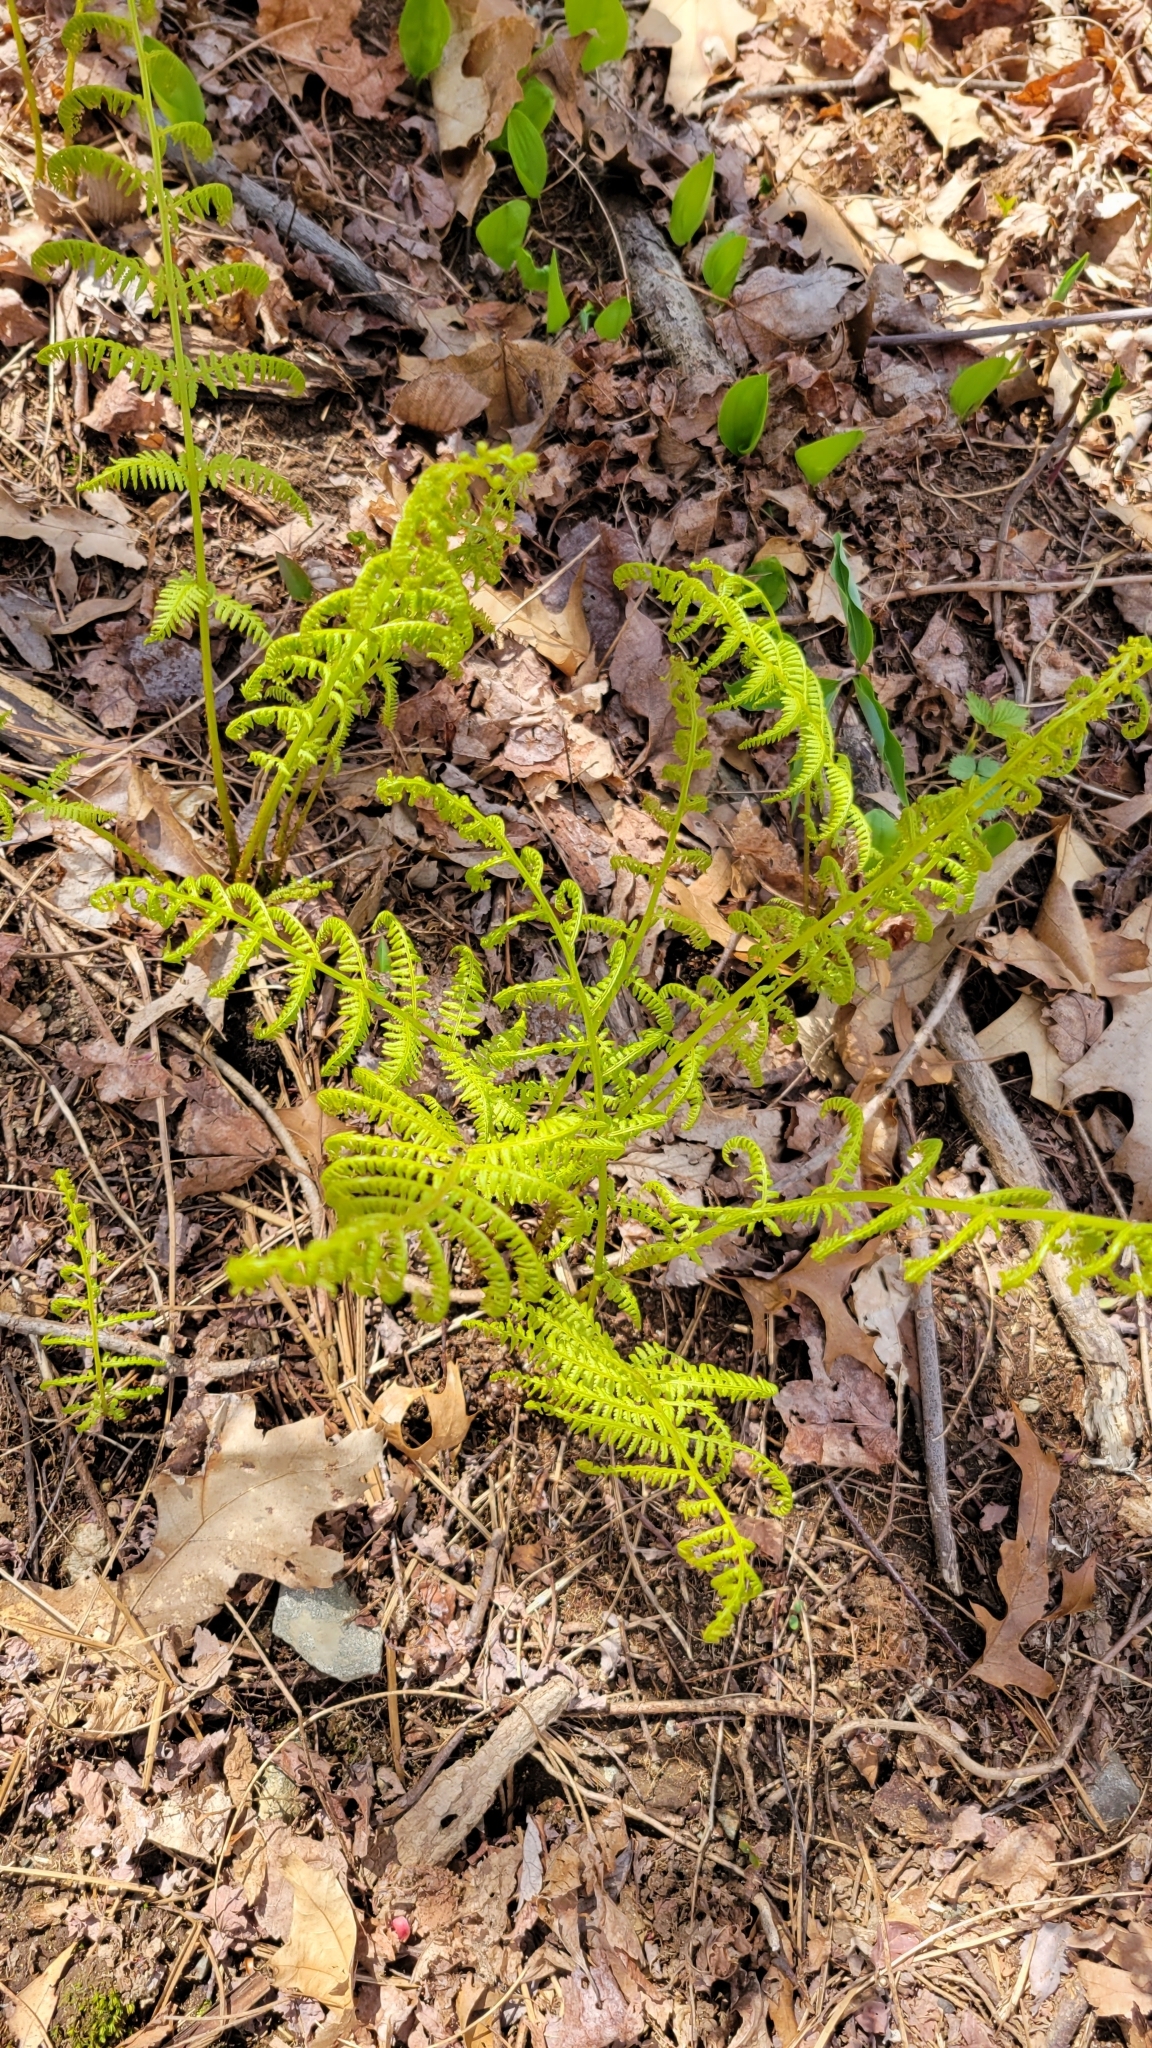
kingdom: Plantae
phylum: Tracheophyta
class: Polypodiopsida
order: Polypodiales
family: Athyriaceae
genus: Athyrium
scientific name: Athyrium angustum
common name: Northern lady fern
